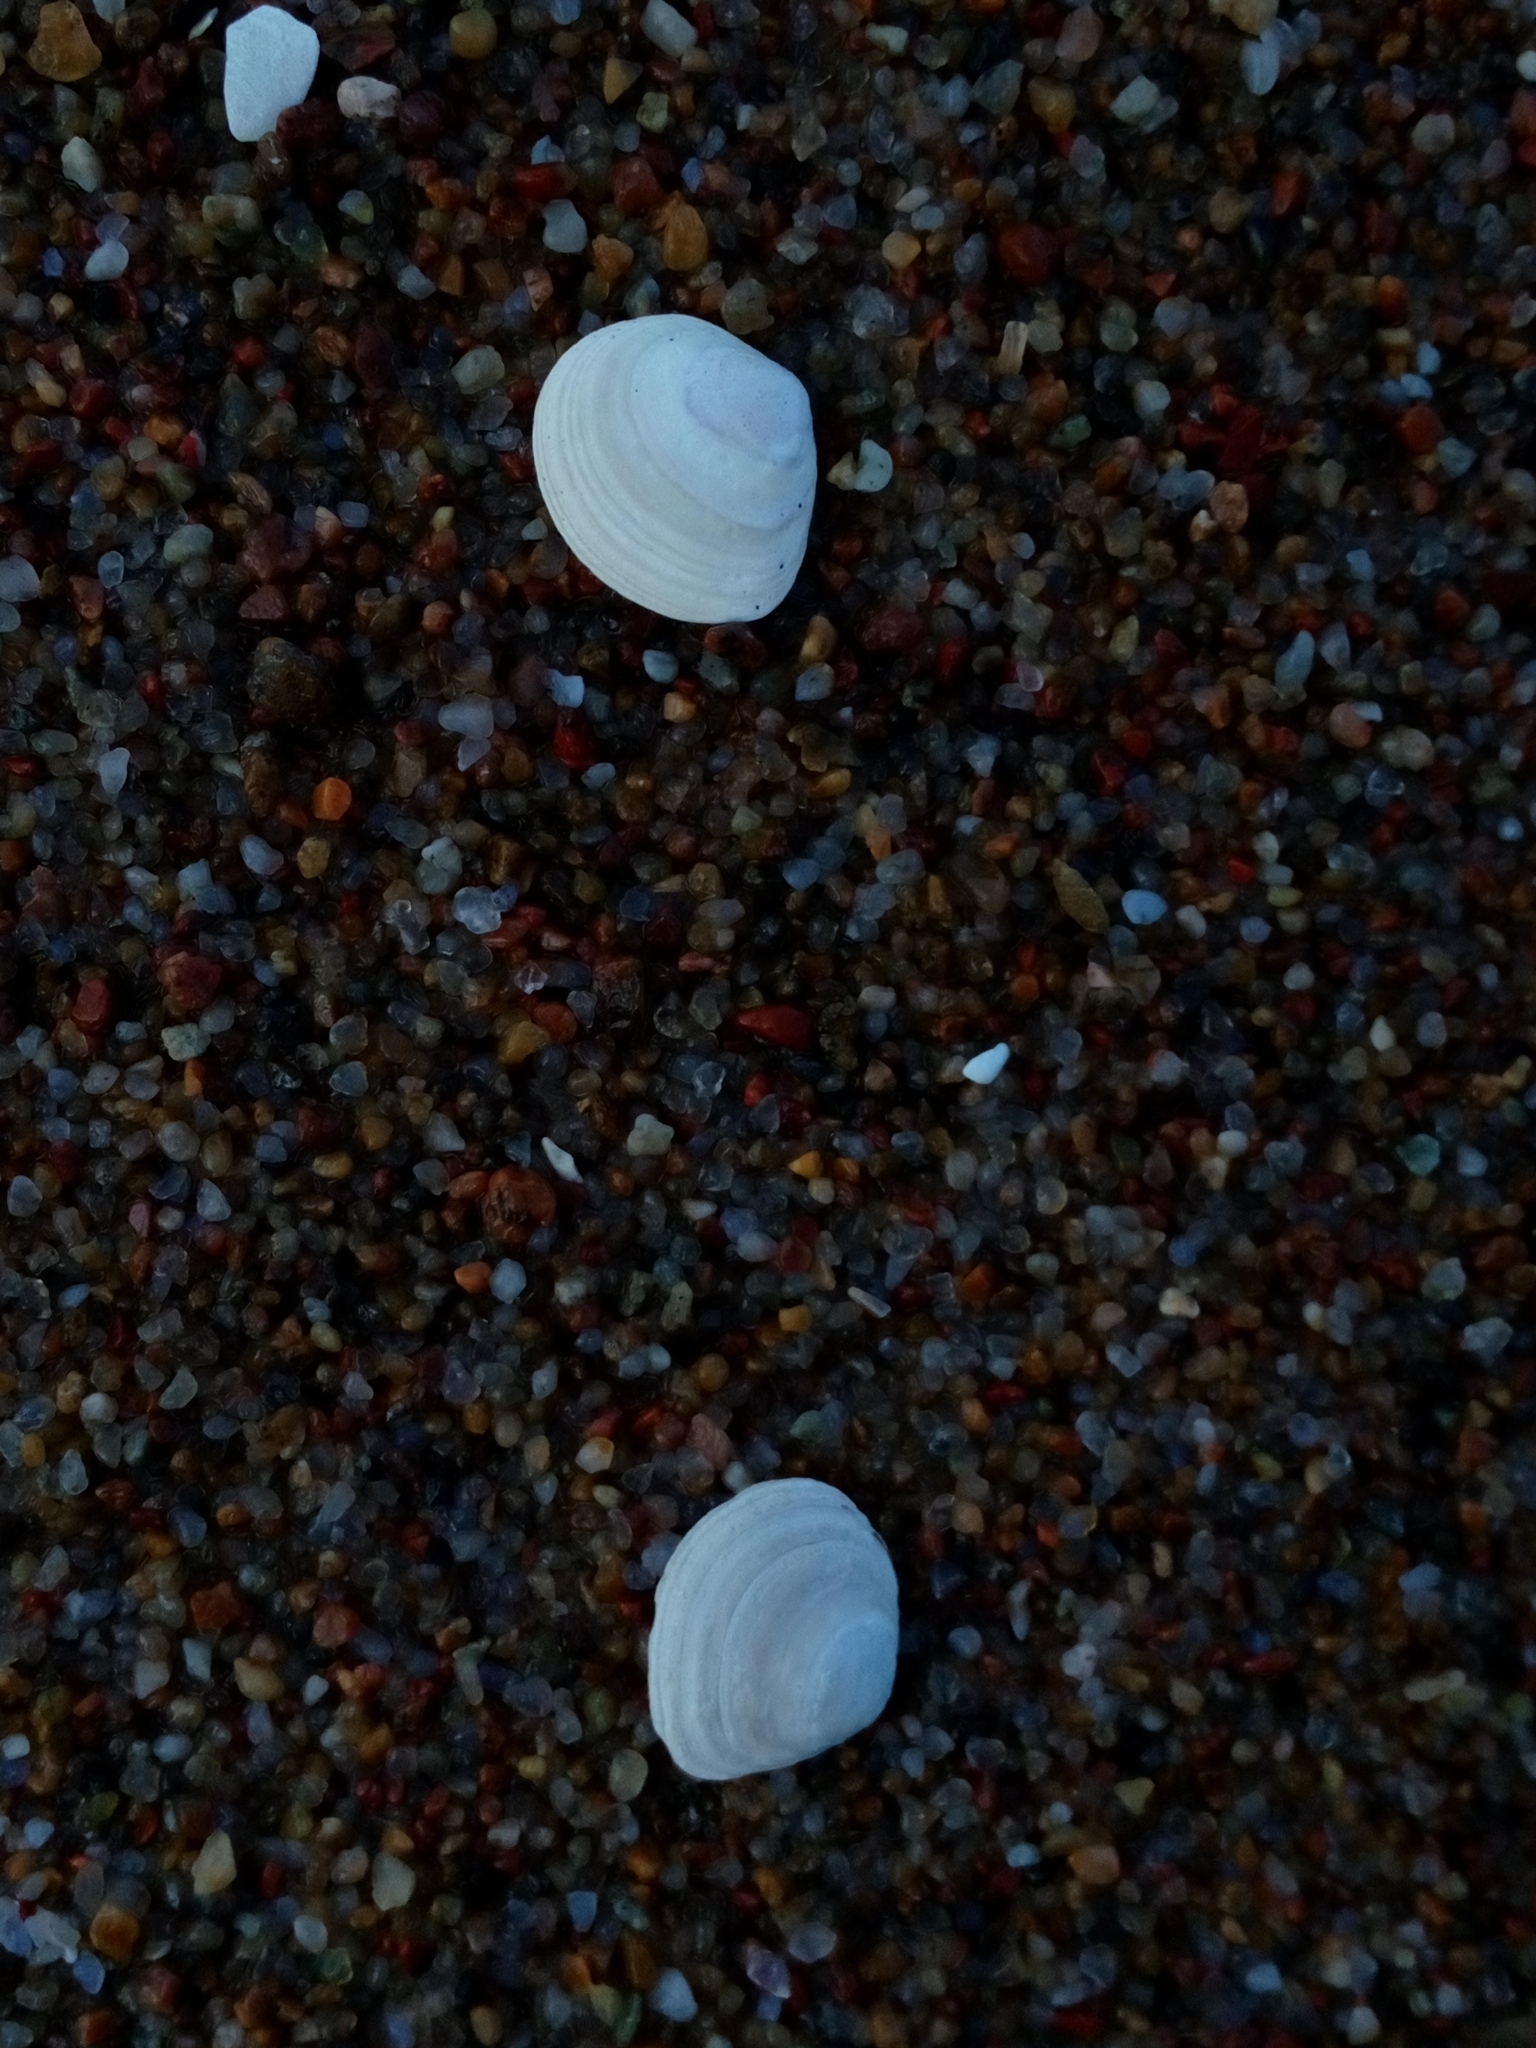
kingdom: Animalia
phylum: Mollusca
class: Bivalvia
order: Cardiida
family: Tellinidae
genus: Macoma
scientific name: Macoma balthica
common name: Baltic tellin
